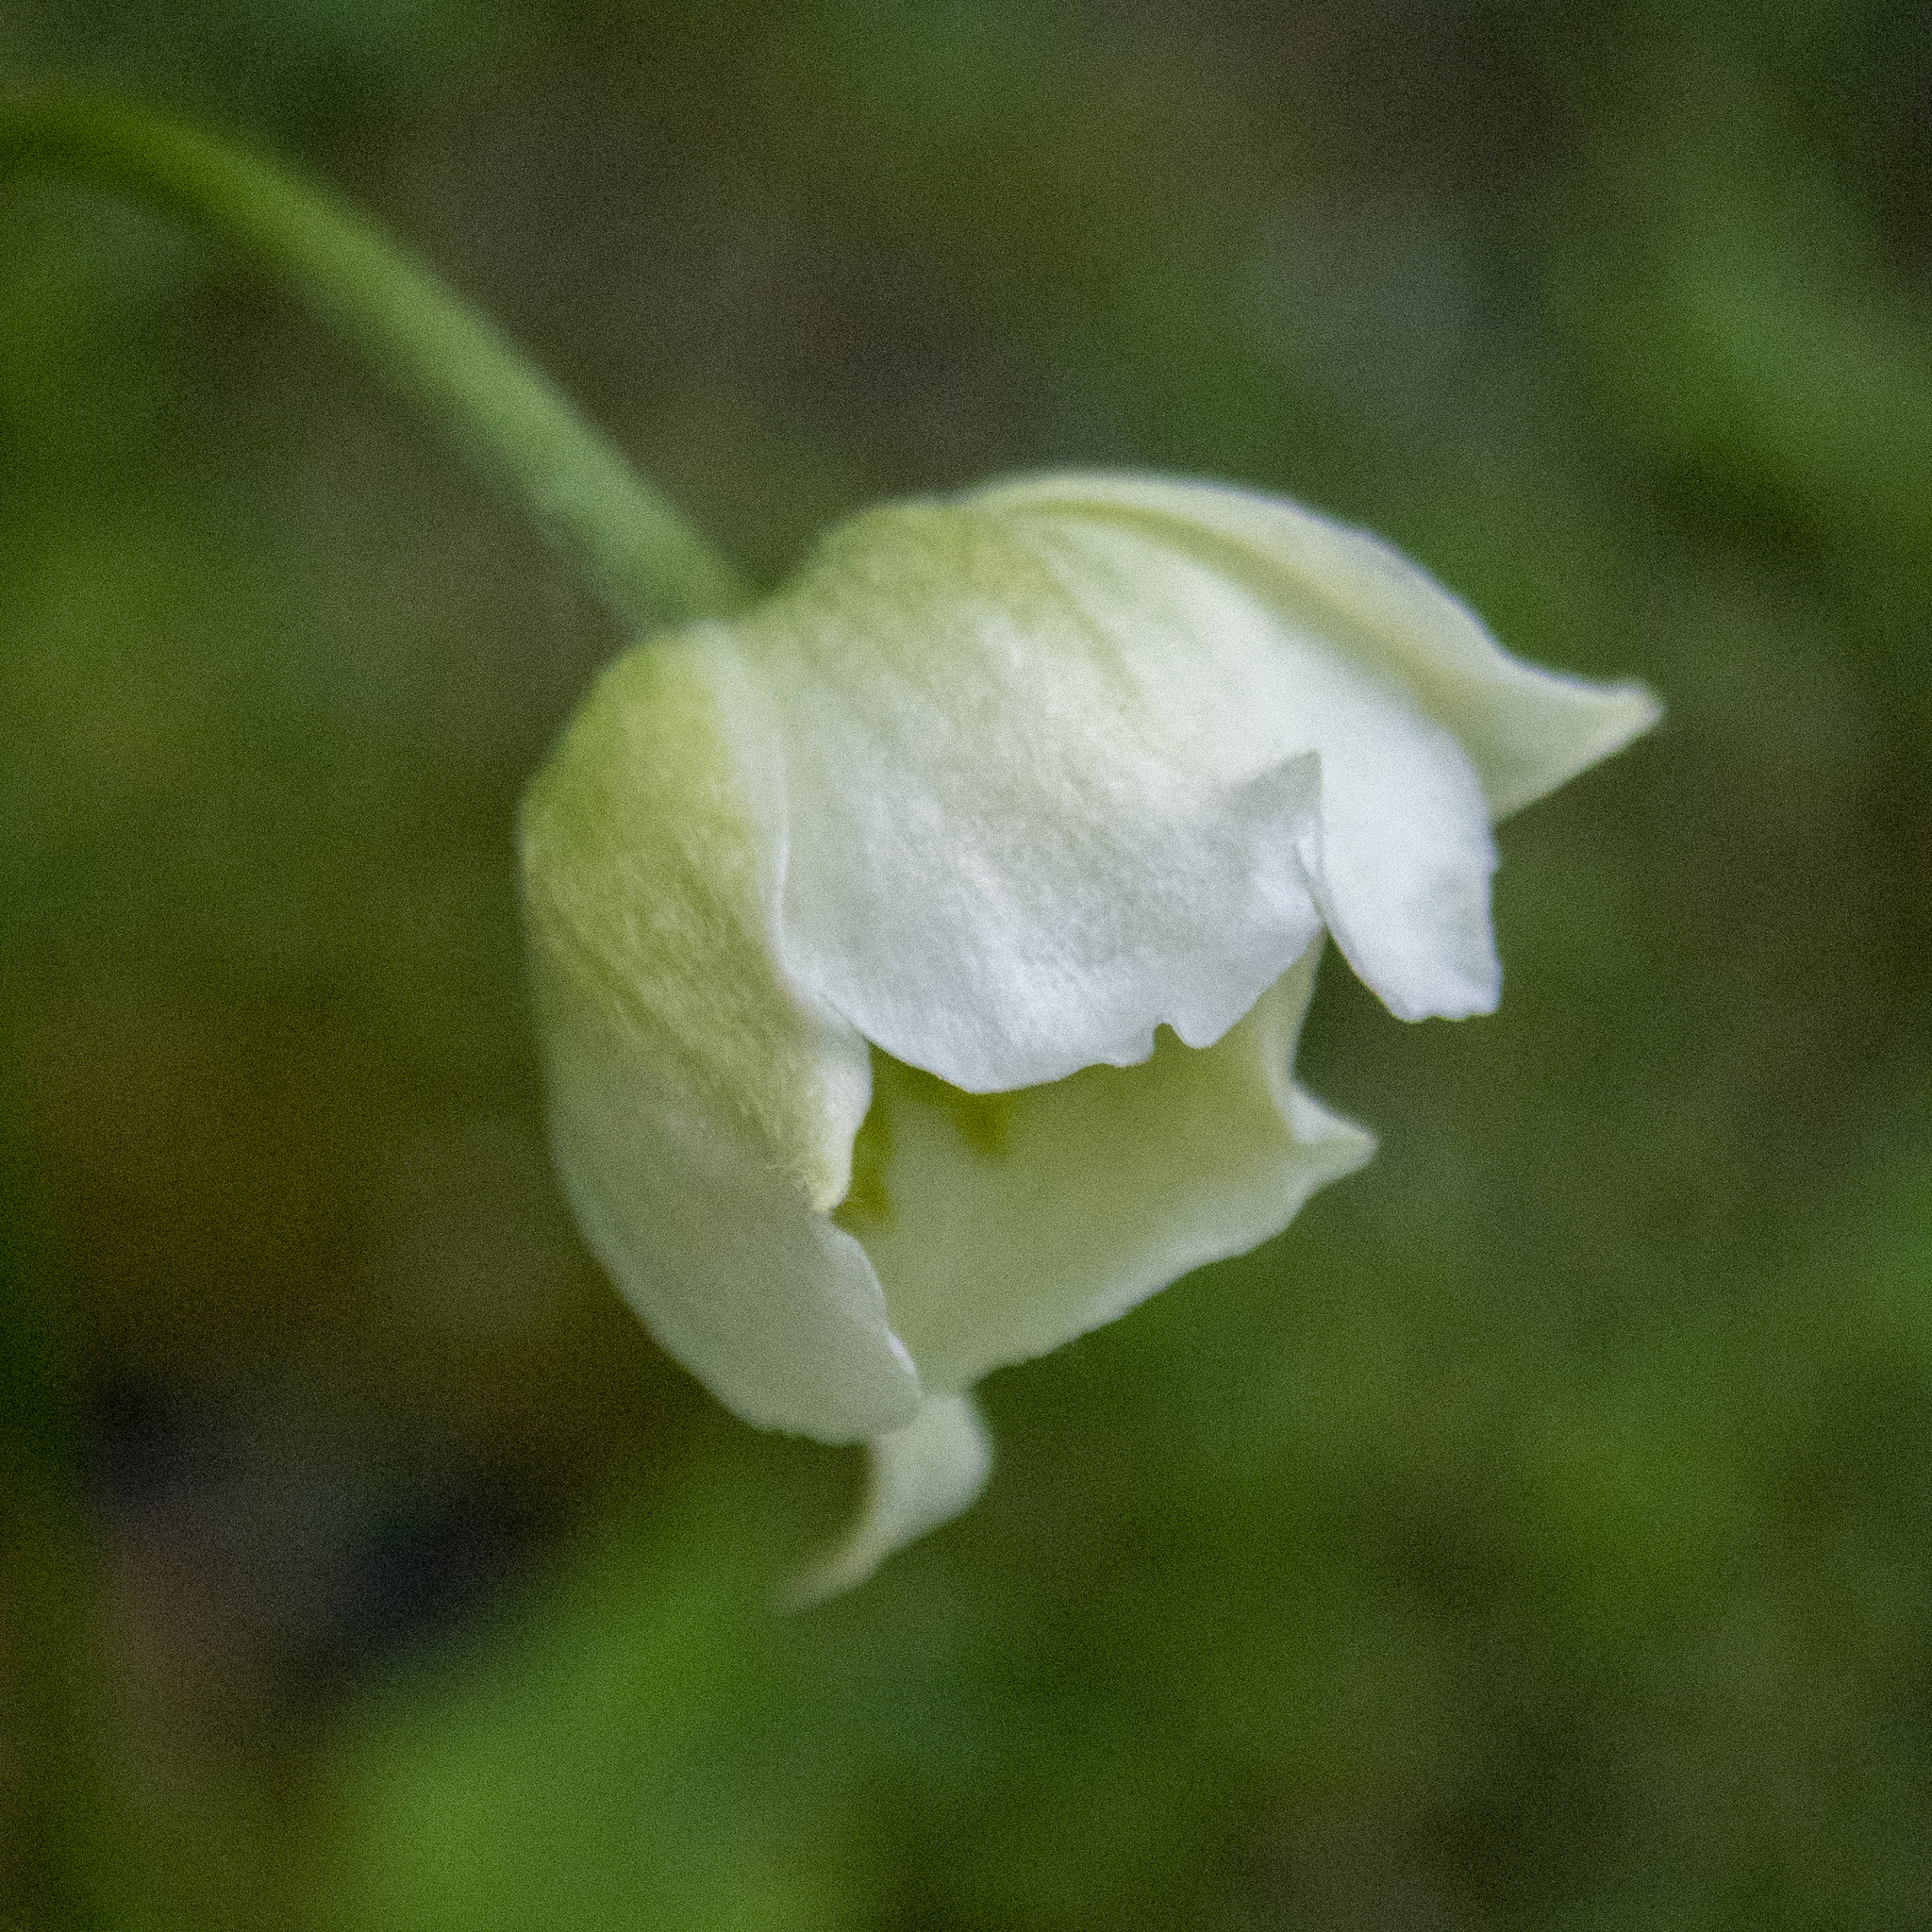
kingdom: Plantae
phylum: Tracheophyta
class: Magnoliopsida
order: Ranunculales
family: Ranunculaceae
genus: Anemone
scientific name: Anemone virginiana
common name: Tall anemone
